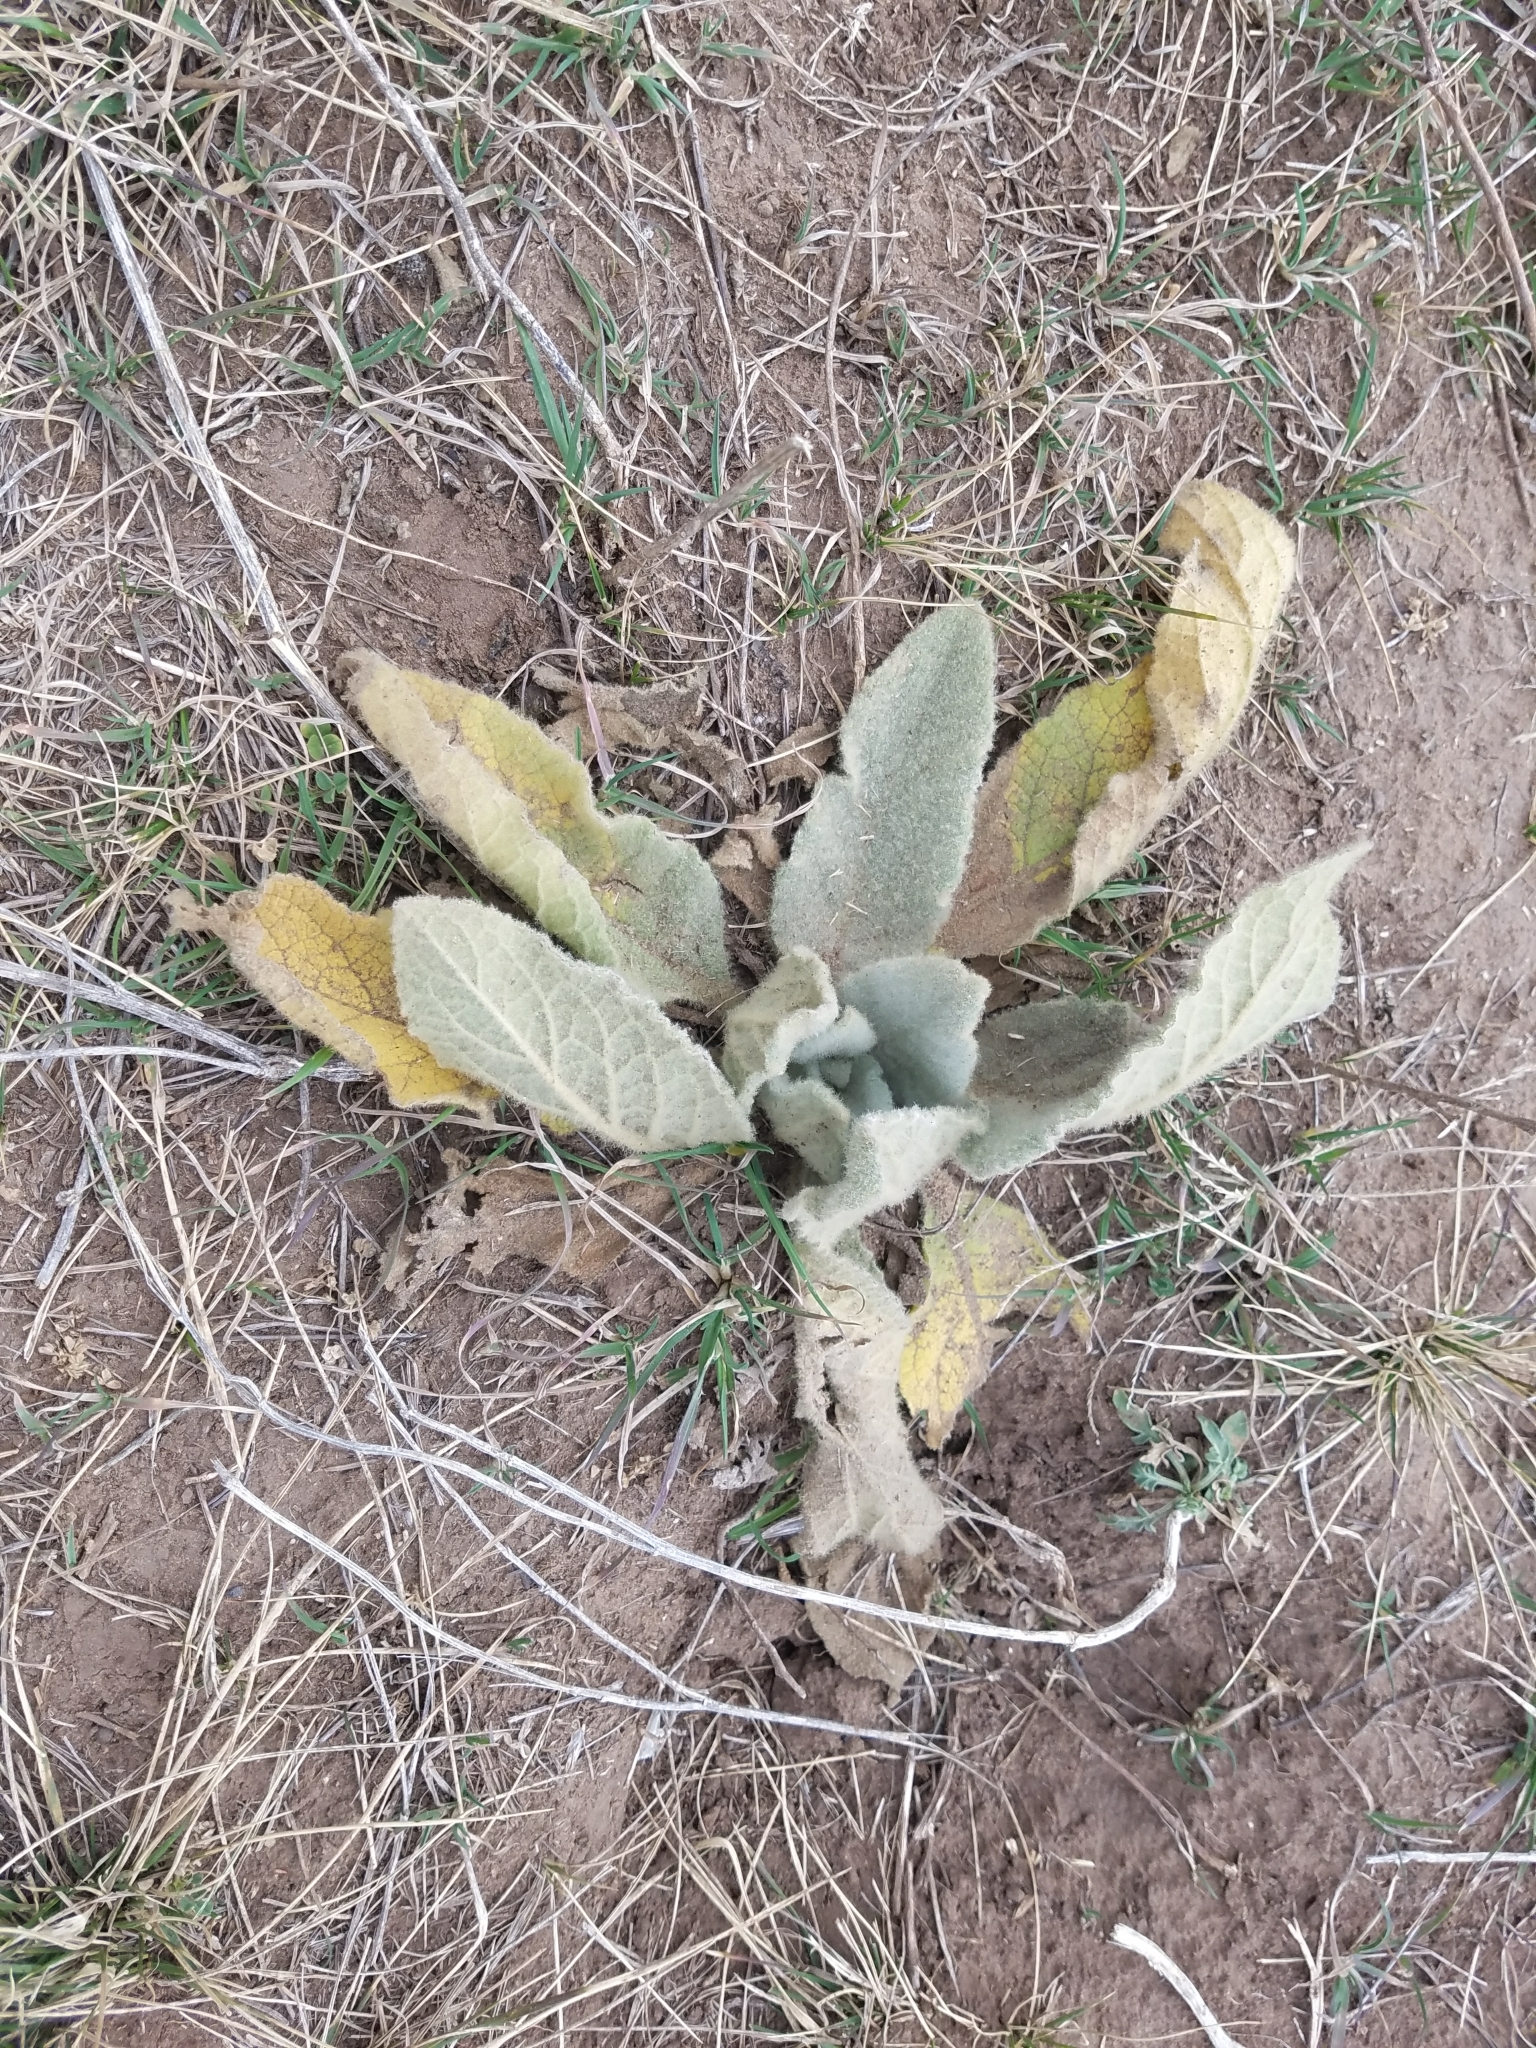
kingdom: Plantae
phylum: Tracheophyta
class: Magnoliopsida
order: Lamiales
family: Scrophulariaceae
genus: Verbascum
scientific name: Verbascum thapsus
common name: Common mullein
